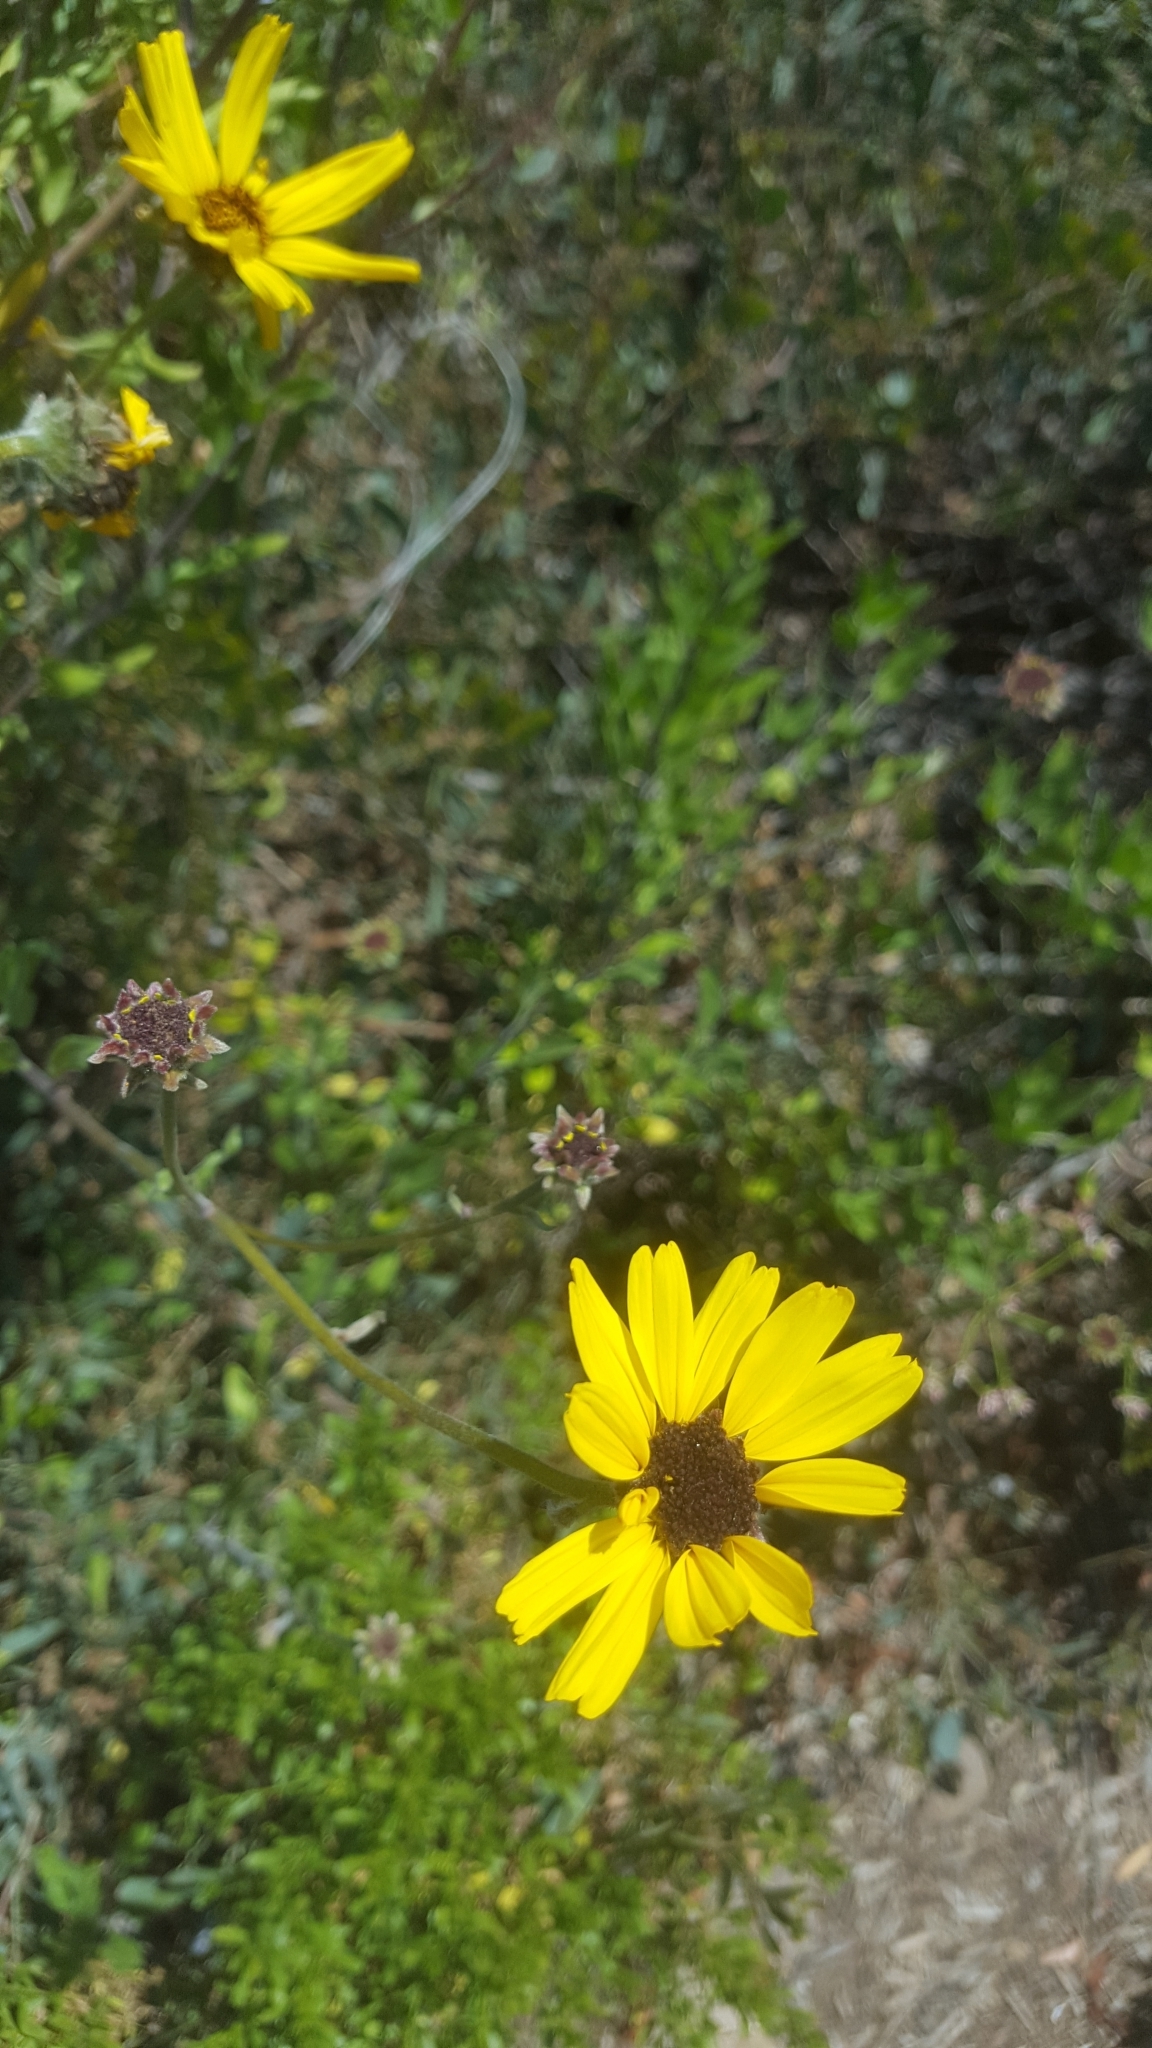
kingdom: Plantae
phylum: Tracheophyta
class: Magnoliopsida
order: Asterales
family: Asteraceae
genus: Encelia
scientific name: Encelia californica
